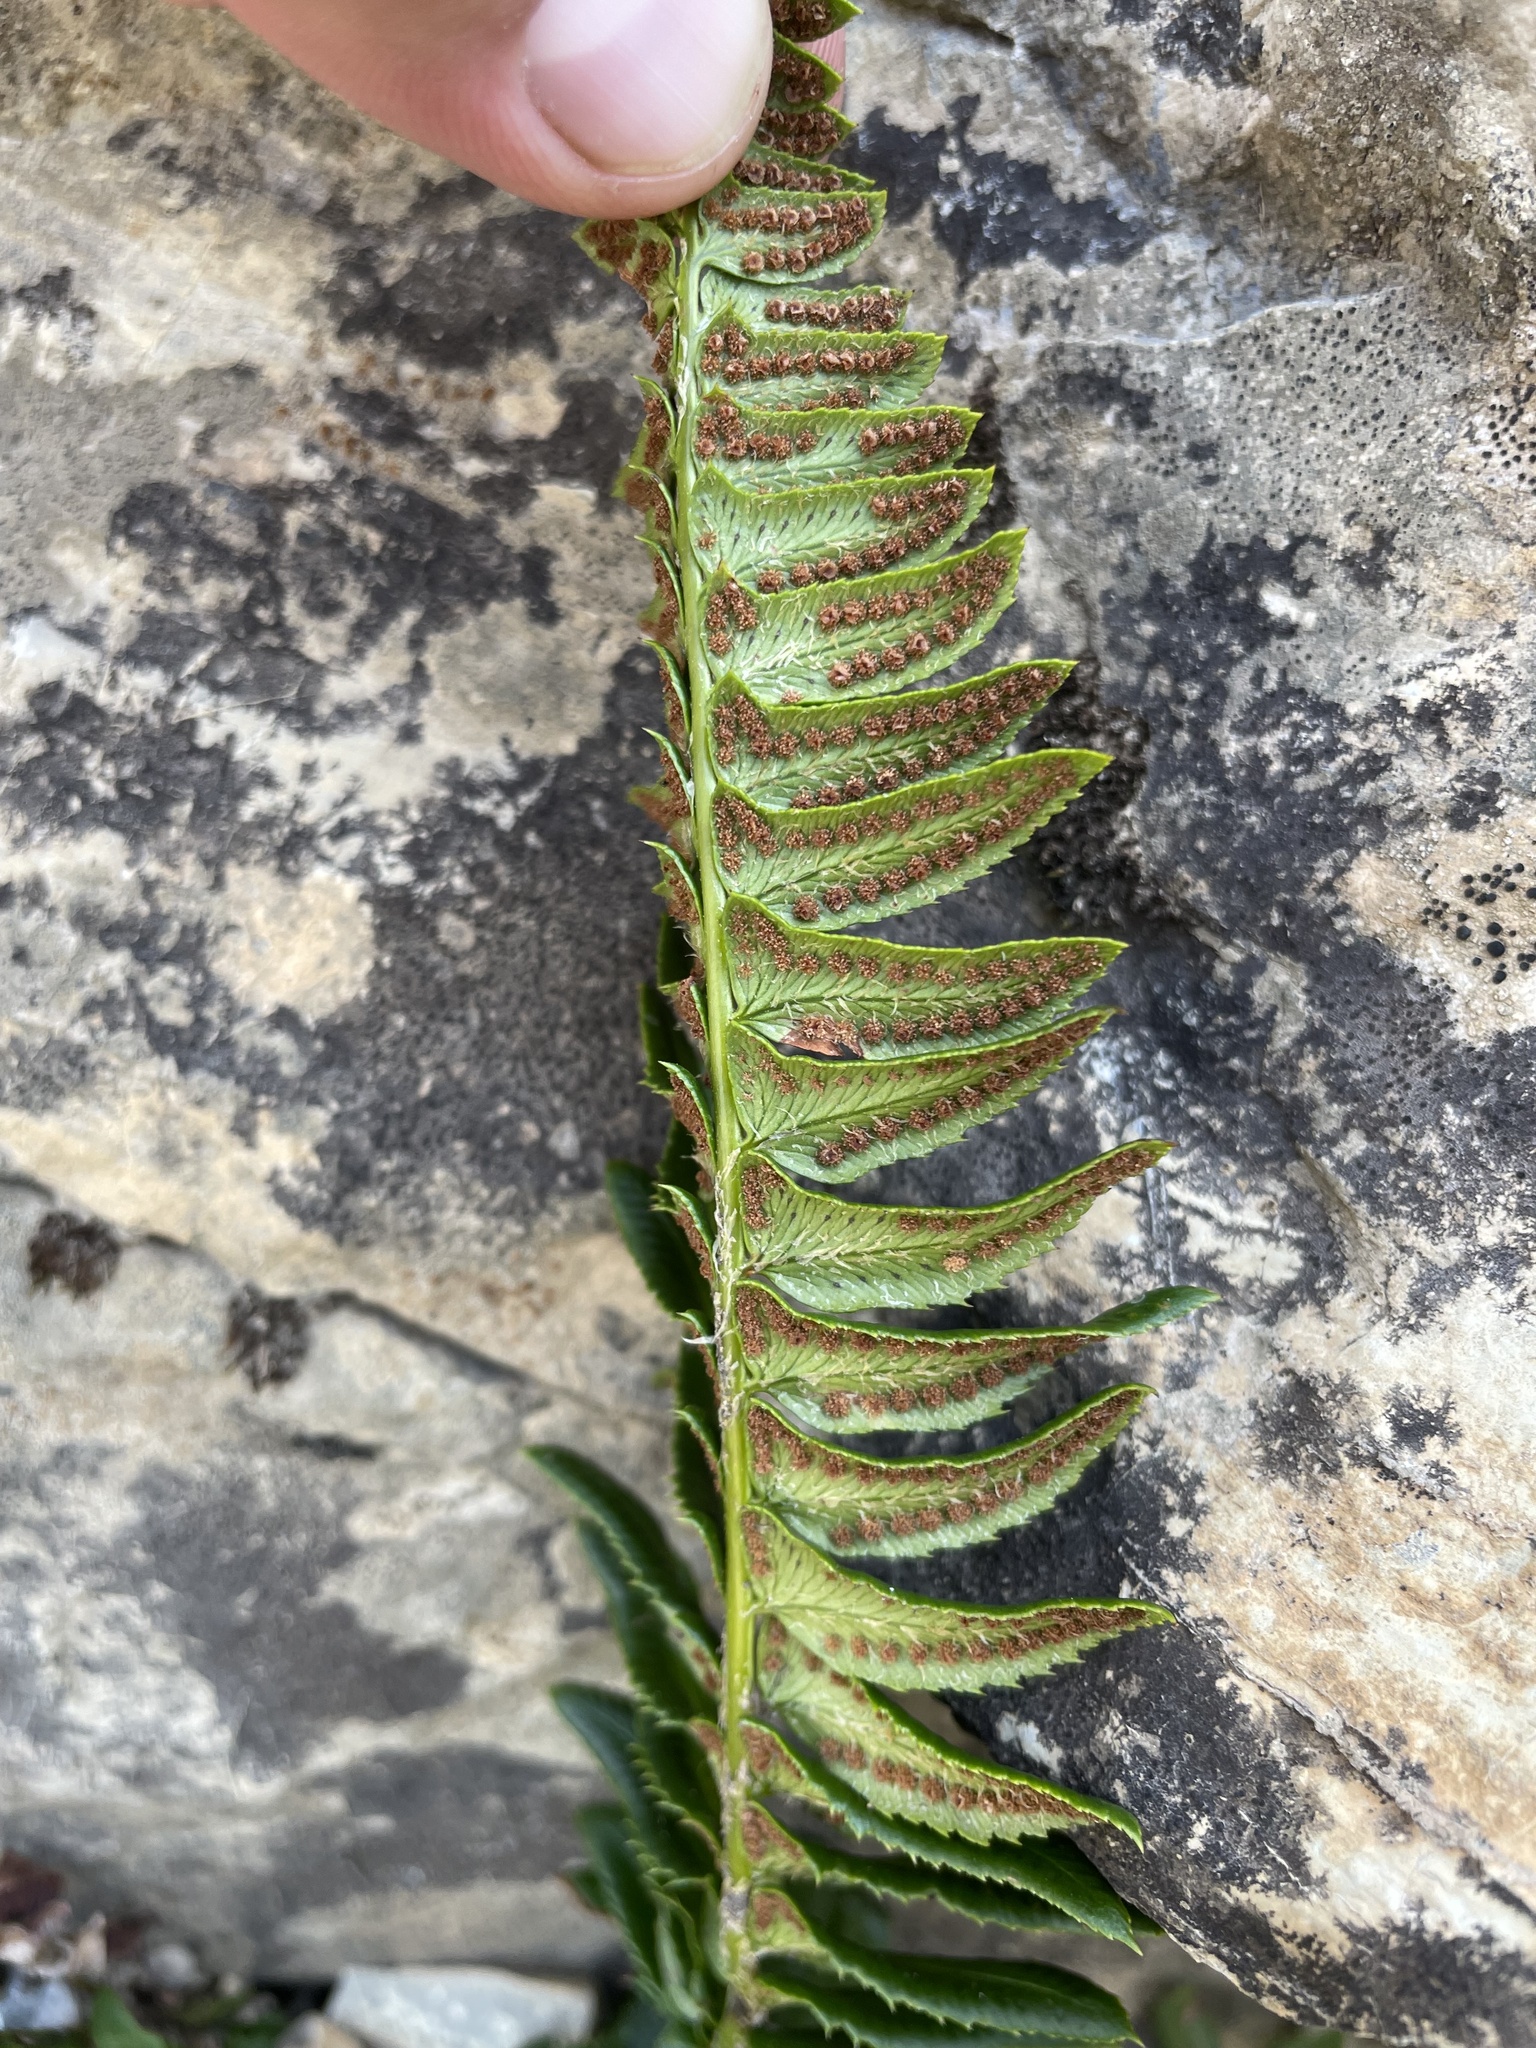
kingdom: Plantae
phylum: Tracheophyta
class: Polypodiopsida
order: Polypodiales
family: Dryopteridaceae
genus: Polystichum
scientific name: Polystichum lonchitis
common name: Holly fern
